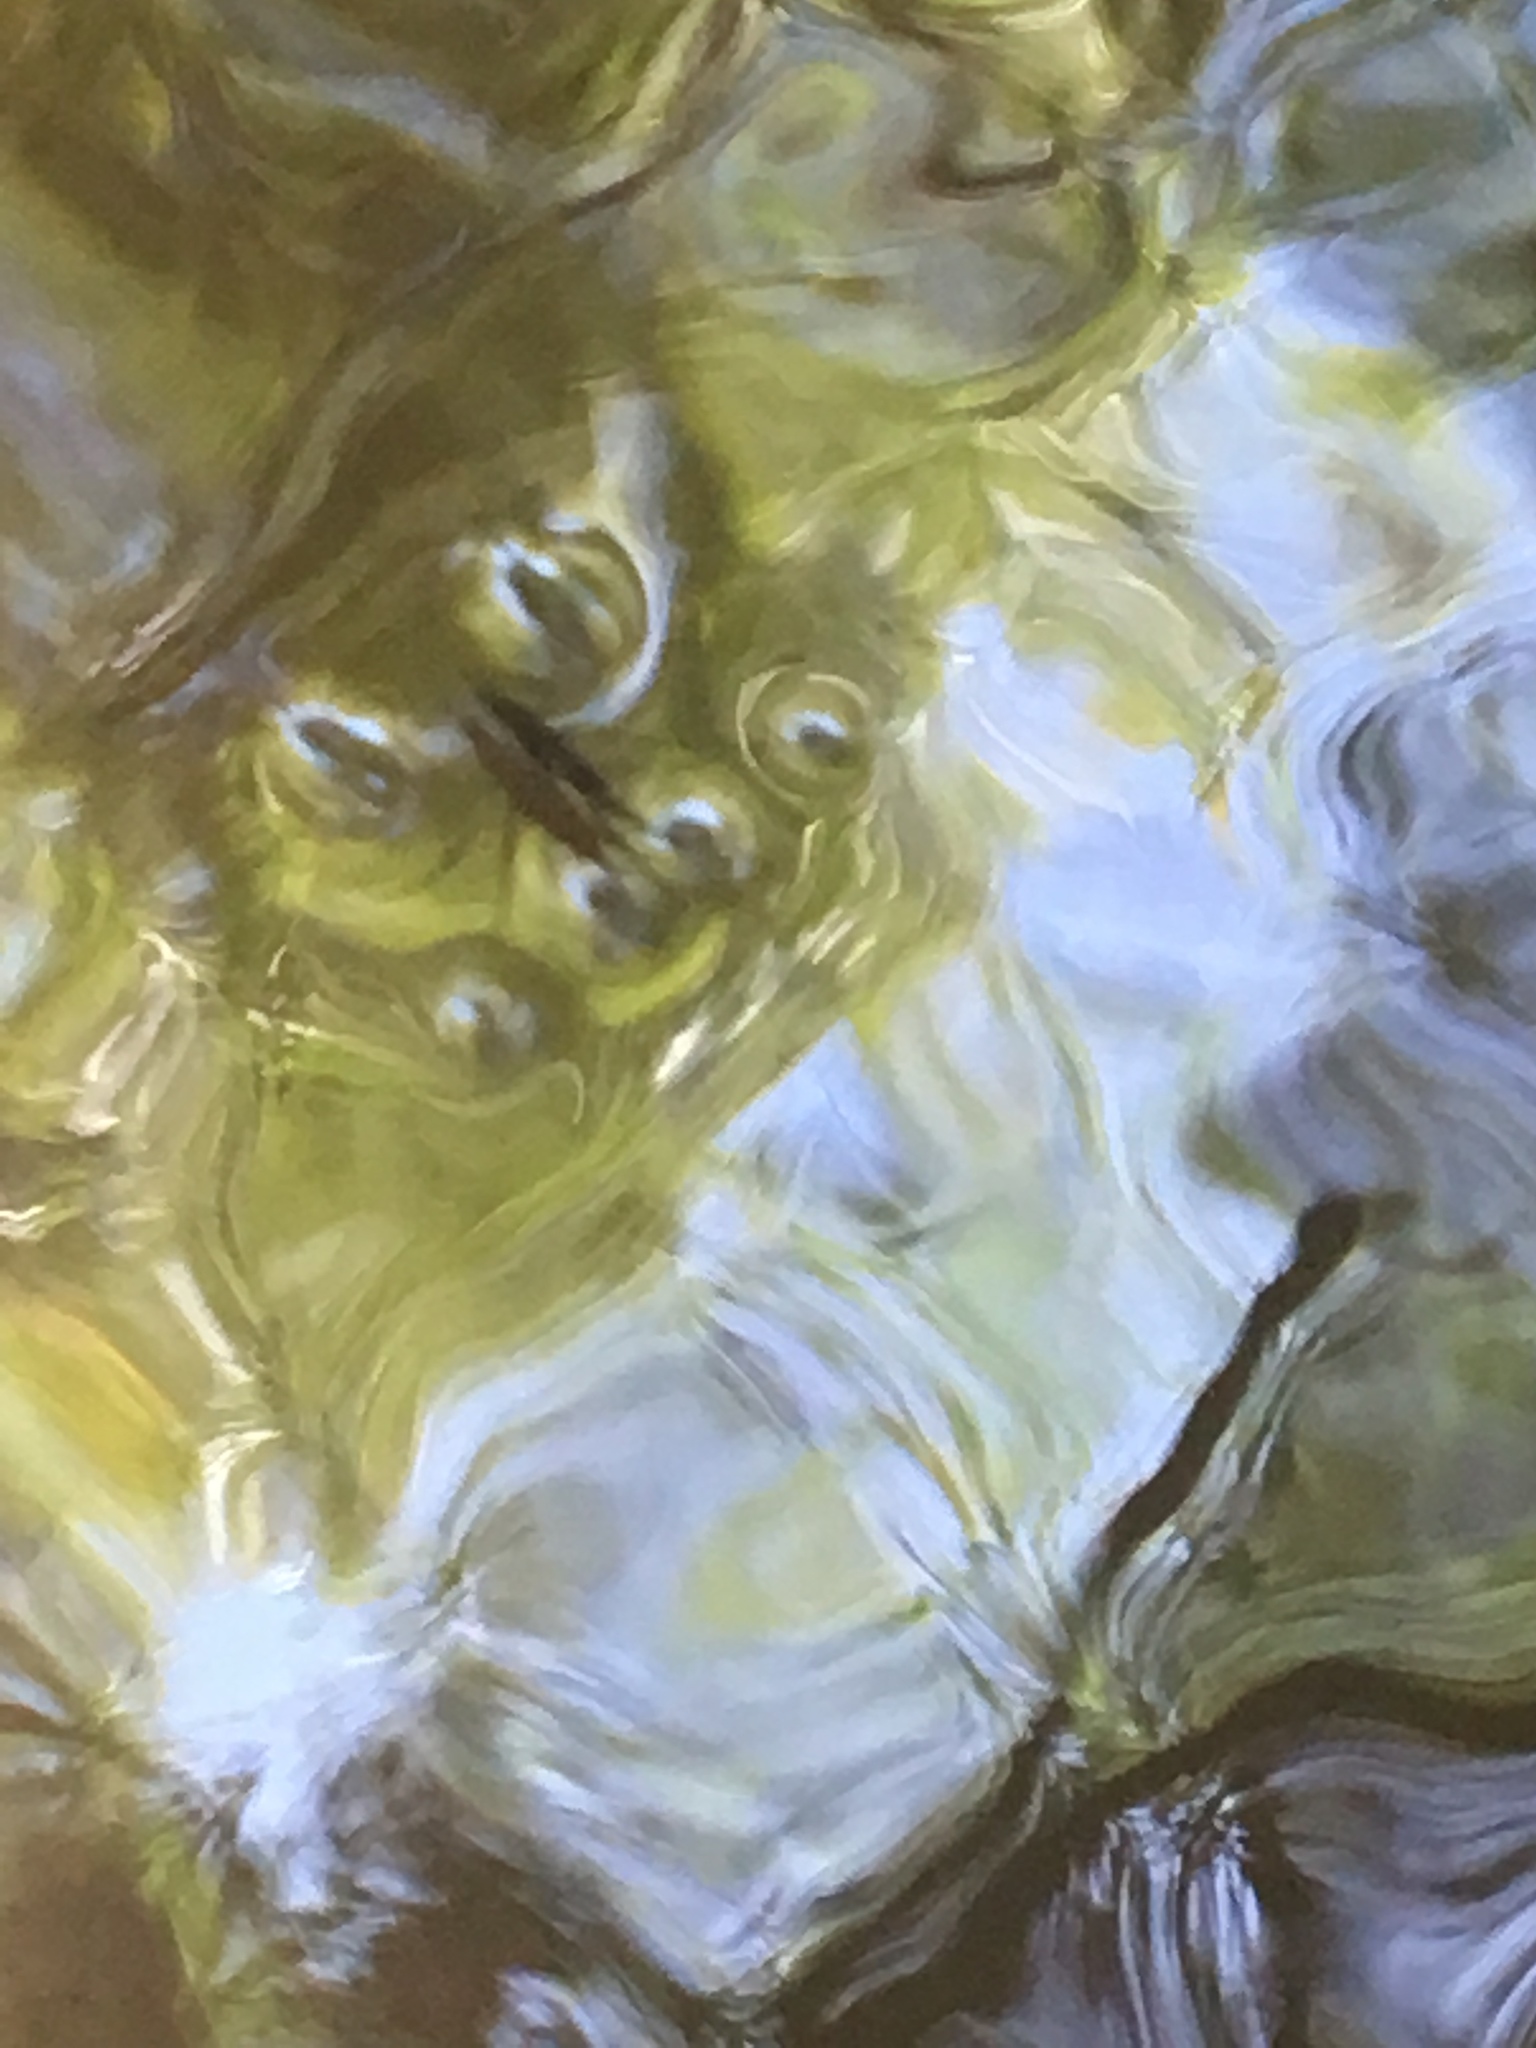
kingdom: Animalia
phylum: Arthropoda
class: Insecta
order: Hemiptera
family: Gerridae
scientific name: Gerridae
